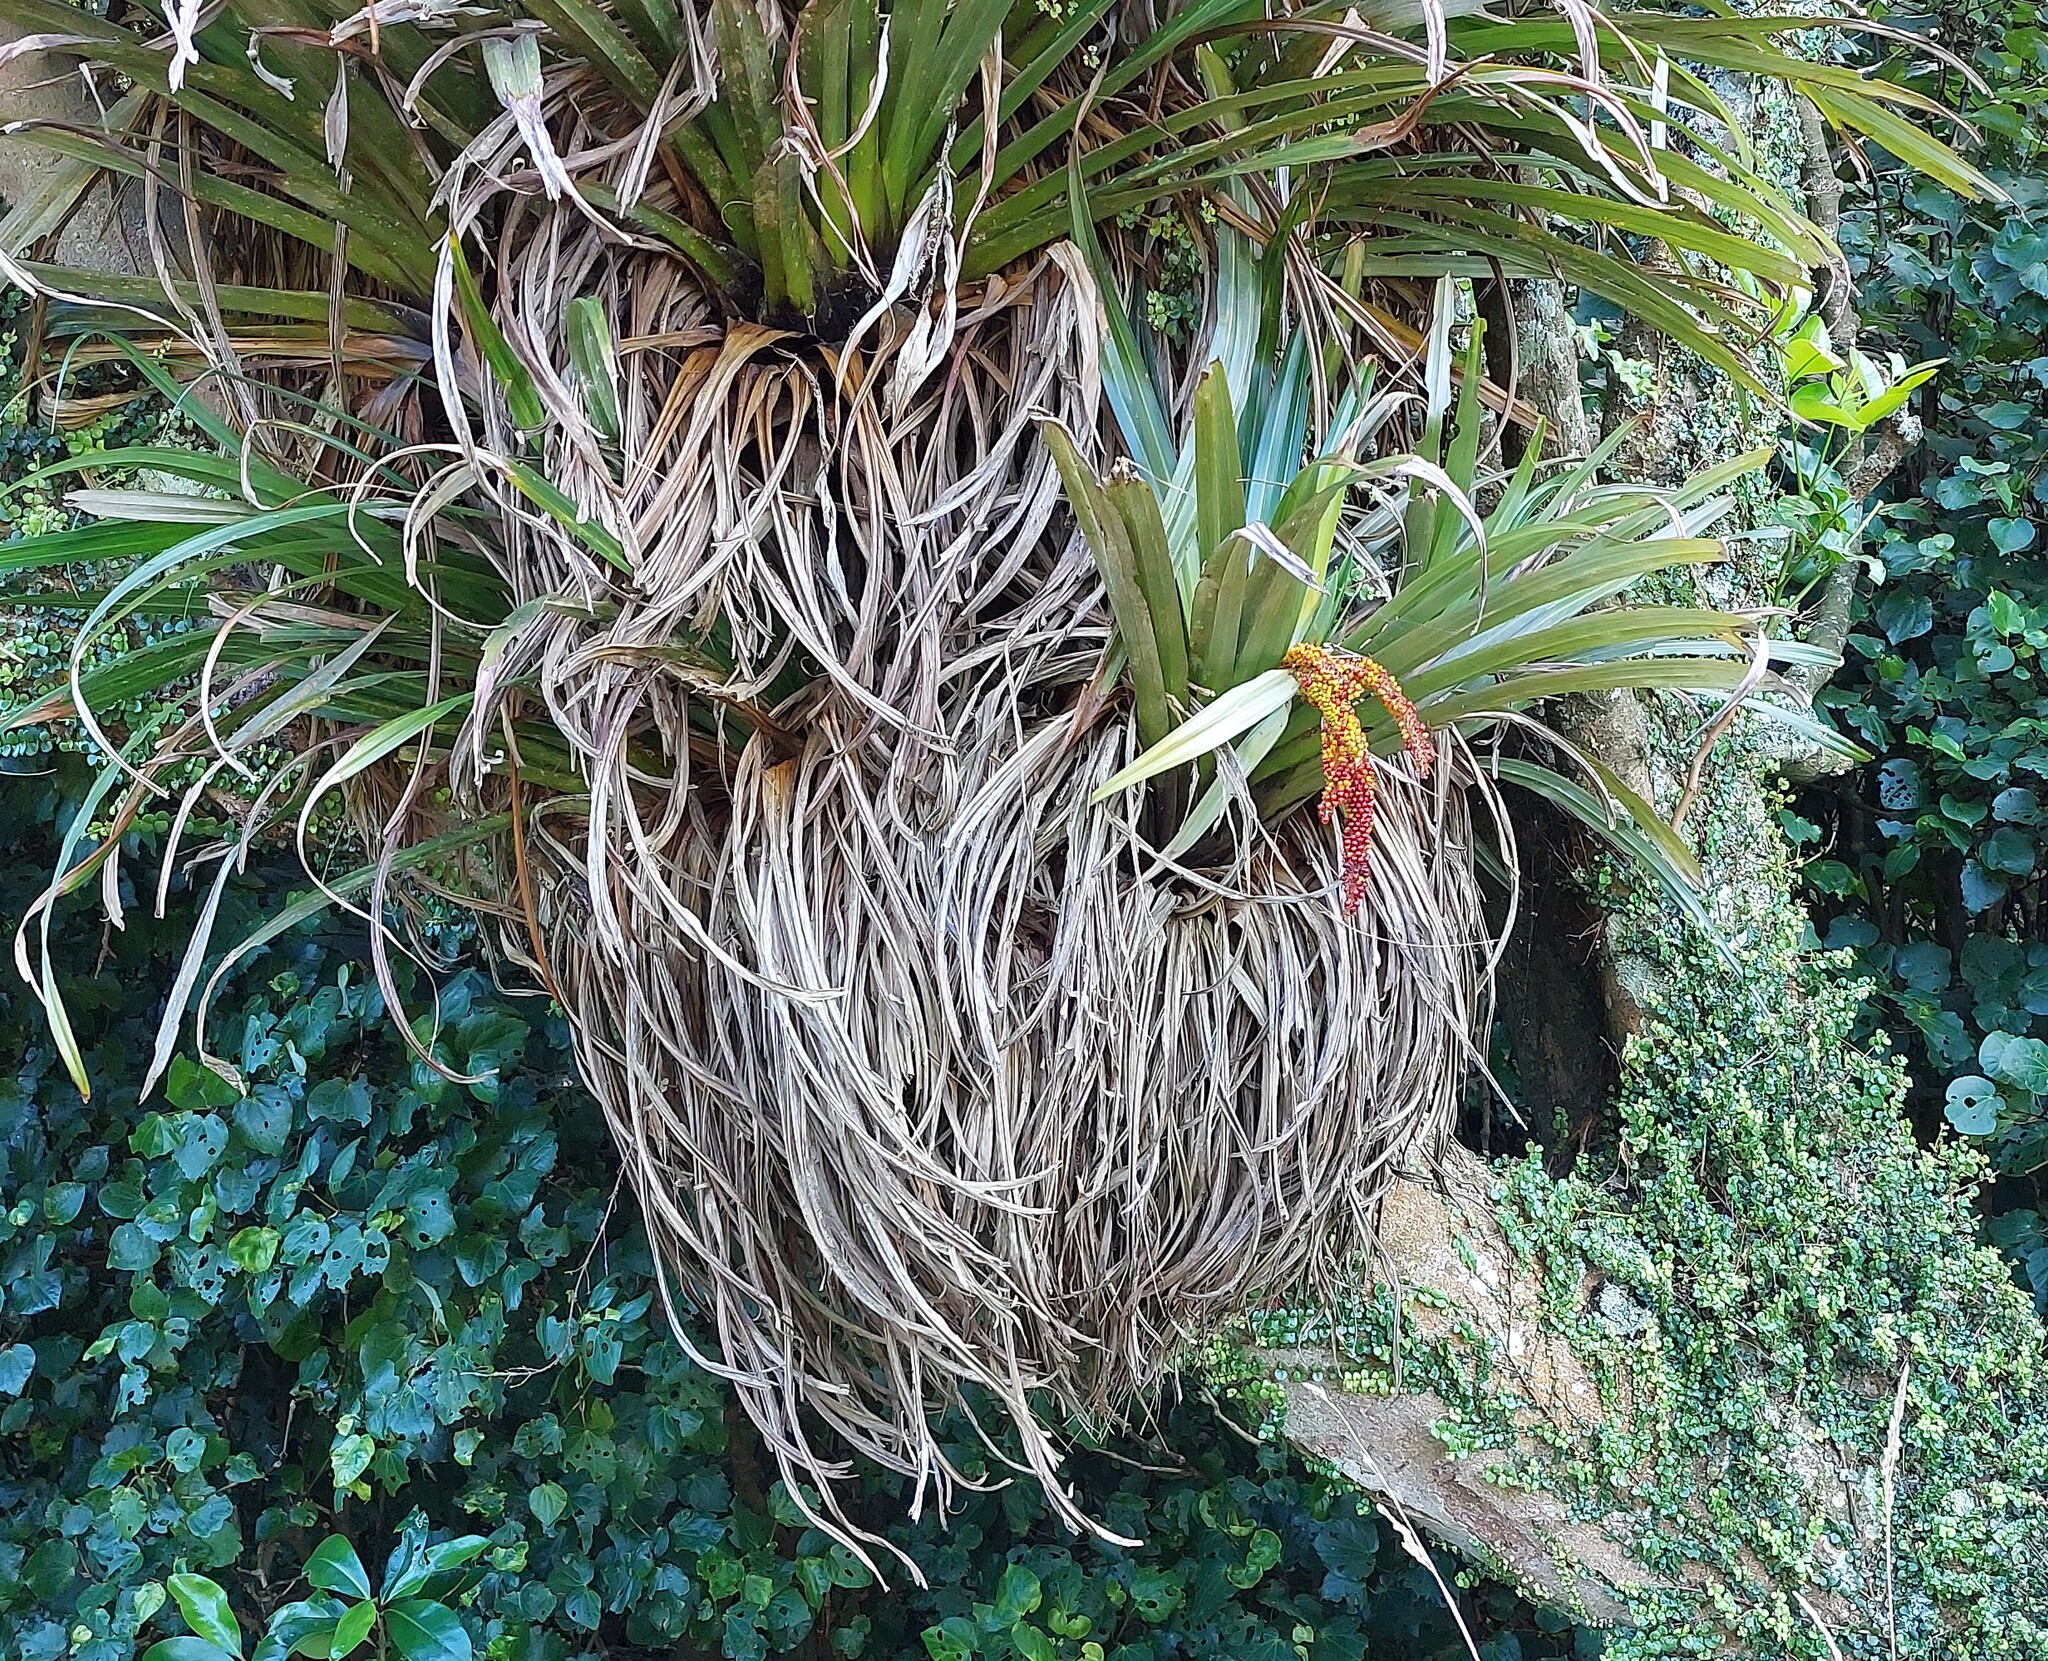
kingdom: Plantae
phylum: Tracheophyta
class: Liliopsida
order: Asparagales
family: Asteliaceae
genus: Astelia
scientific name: Astelia hastata
